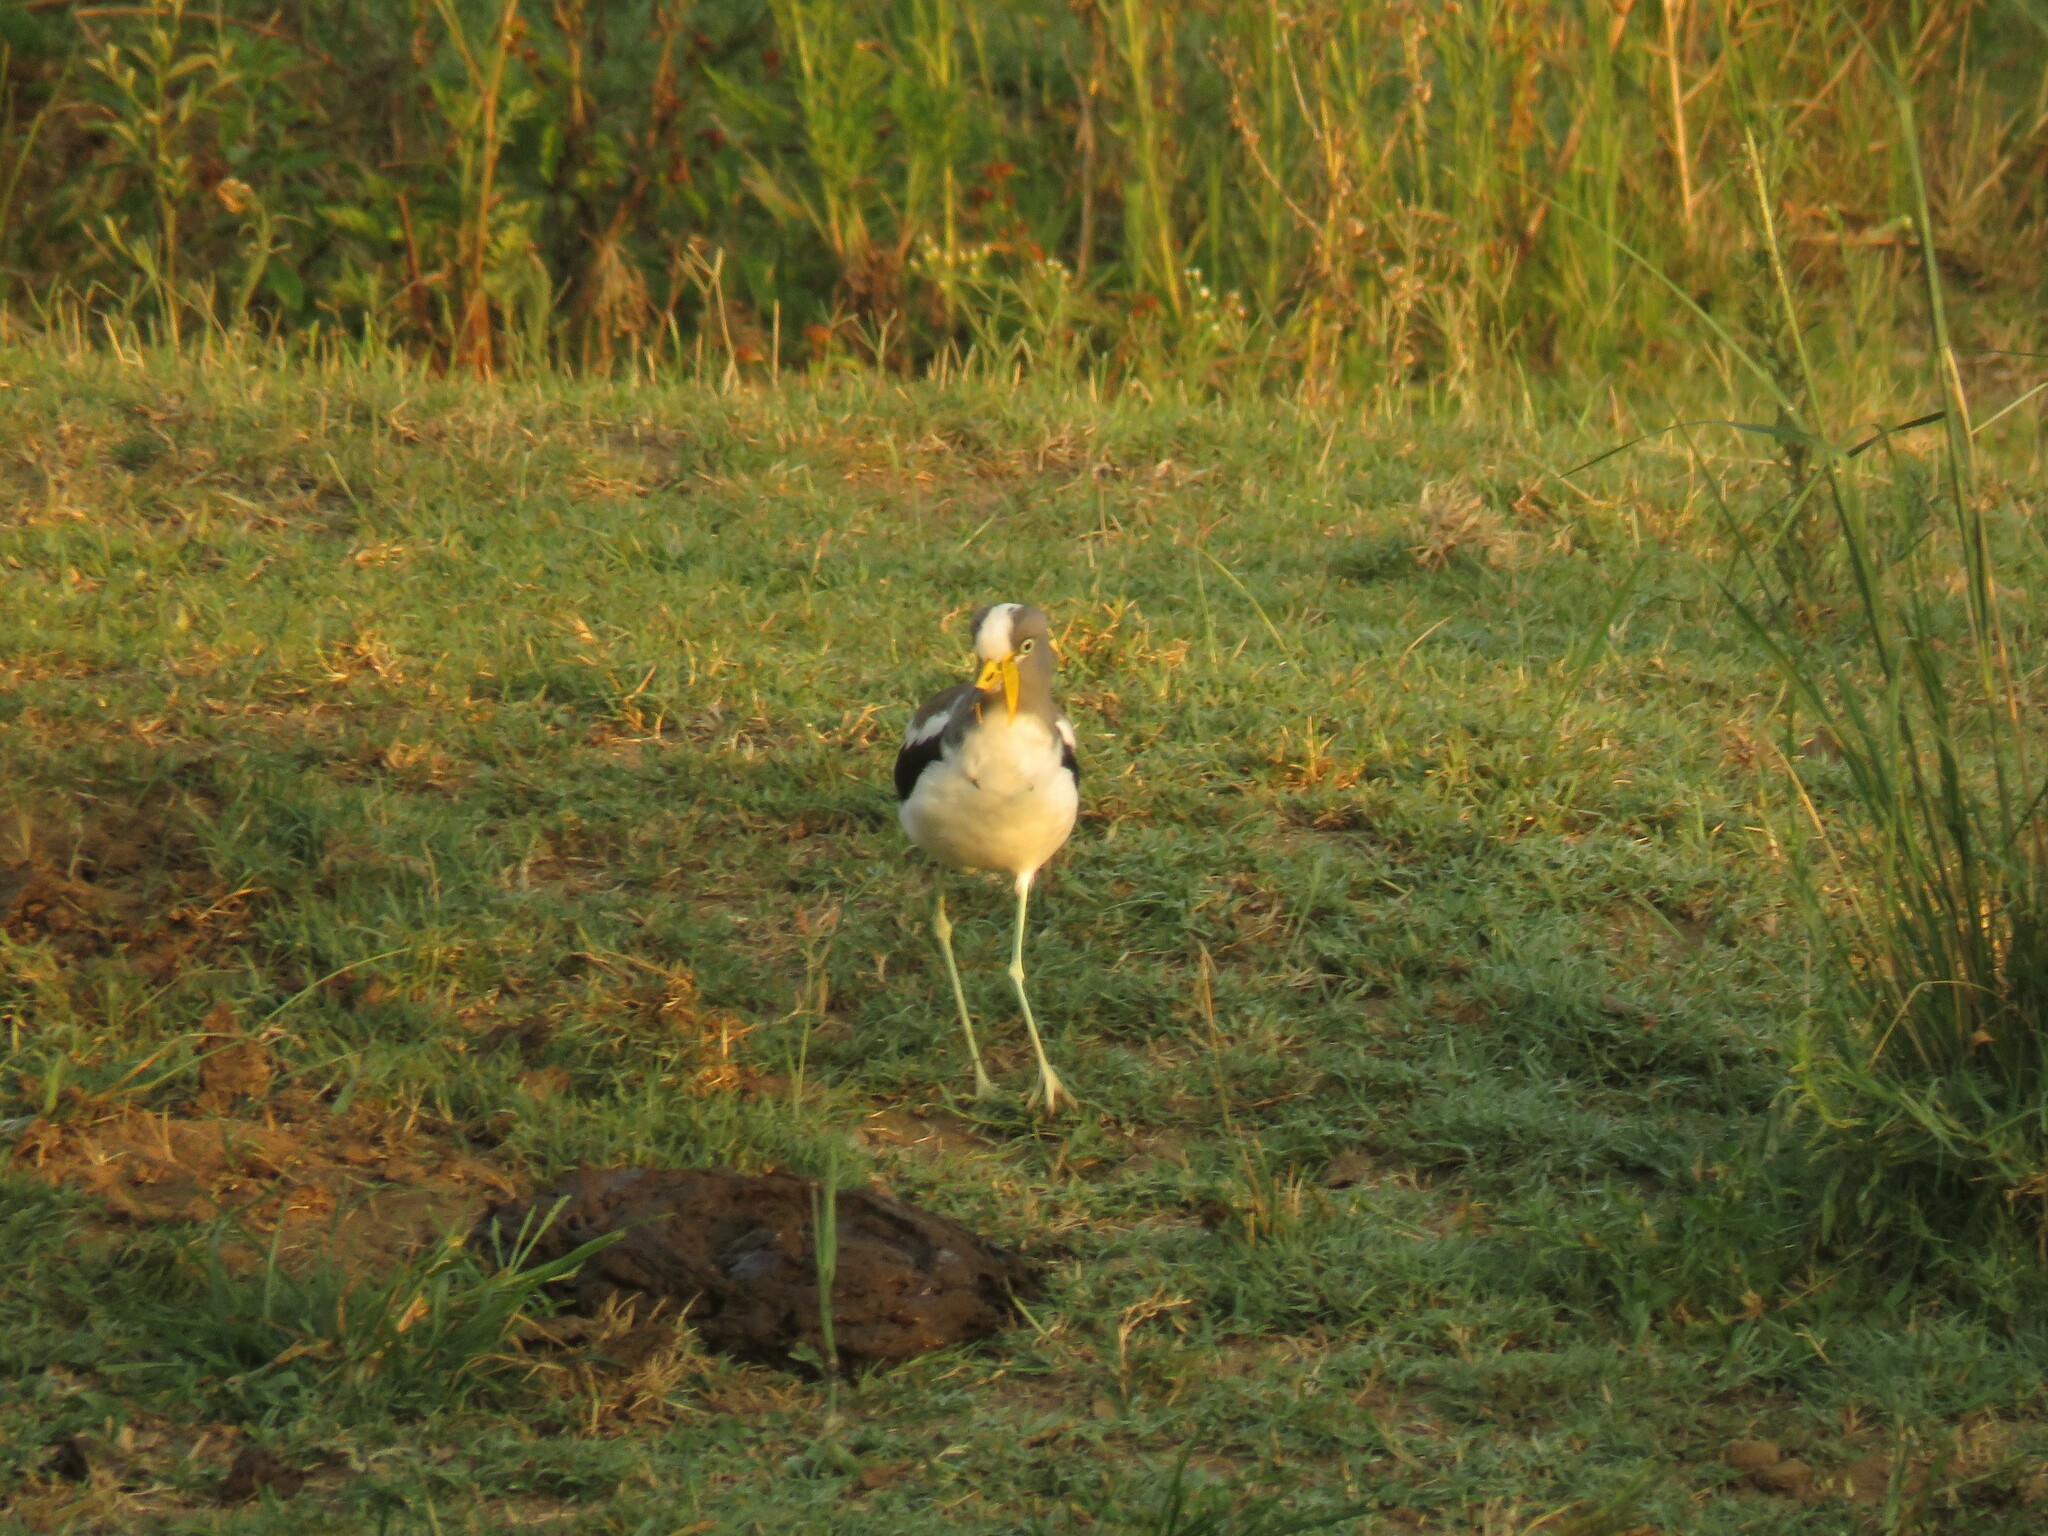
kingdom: Animalia
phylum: Chordata
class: Aves
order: Charadriiformes
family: Charadriidae
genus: Vanellus
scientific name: Vanellus albiceps
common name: White-crowned lapwing
